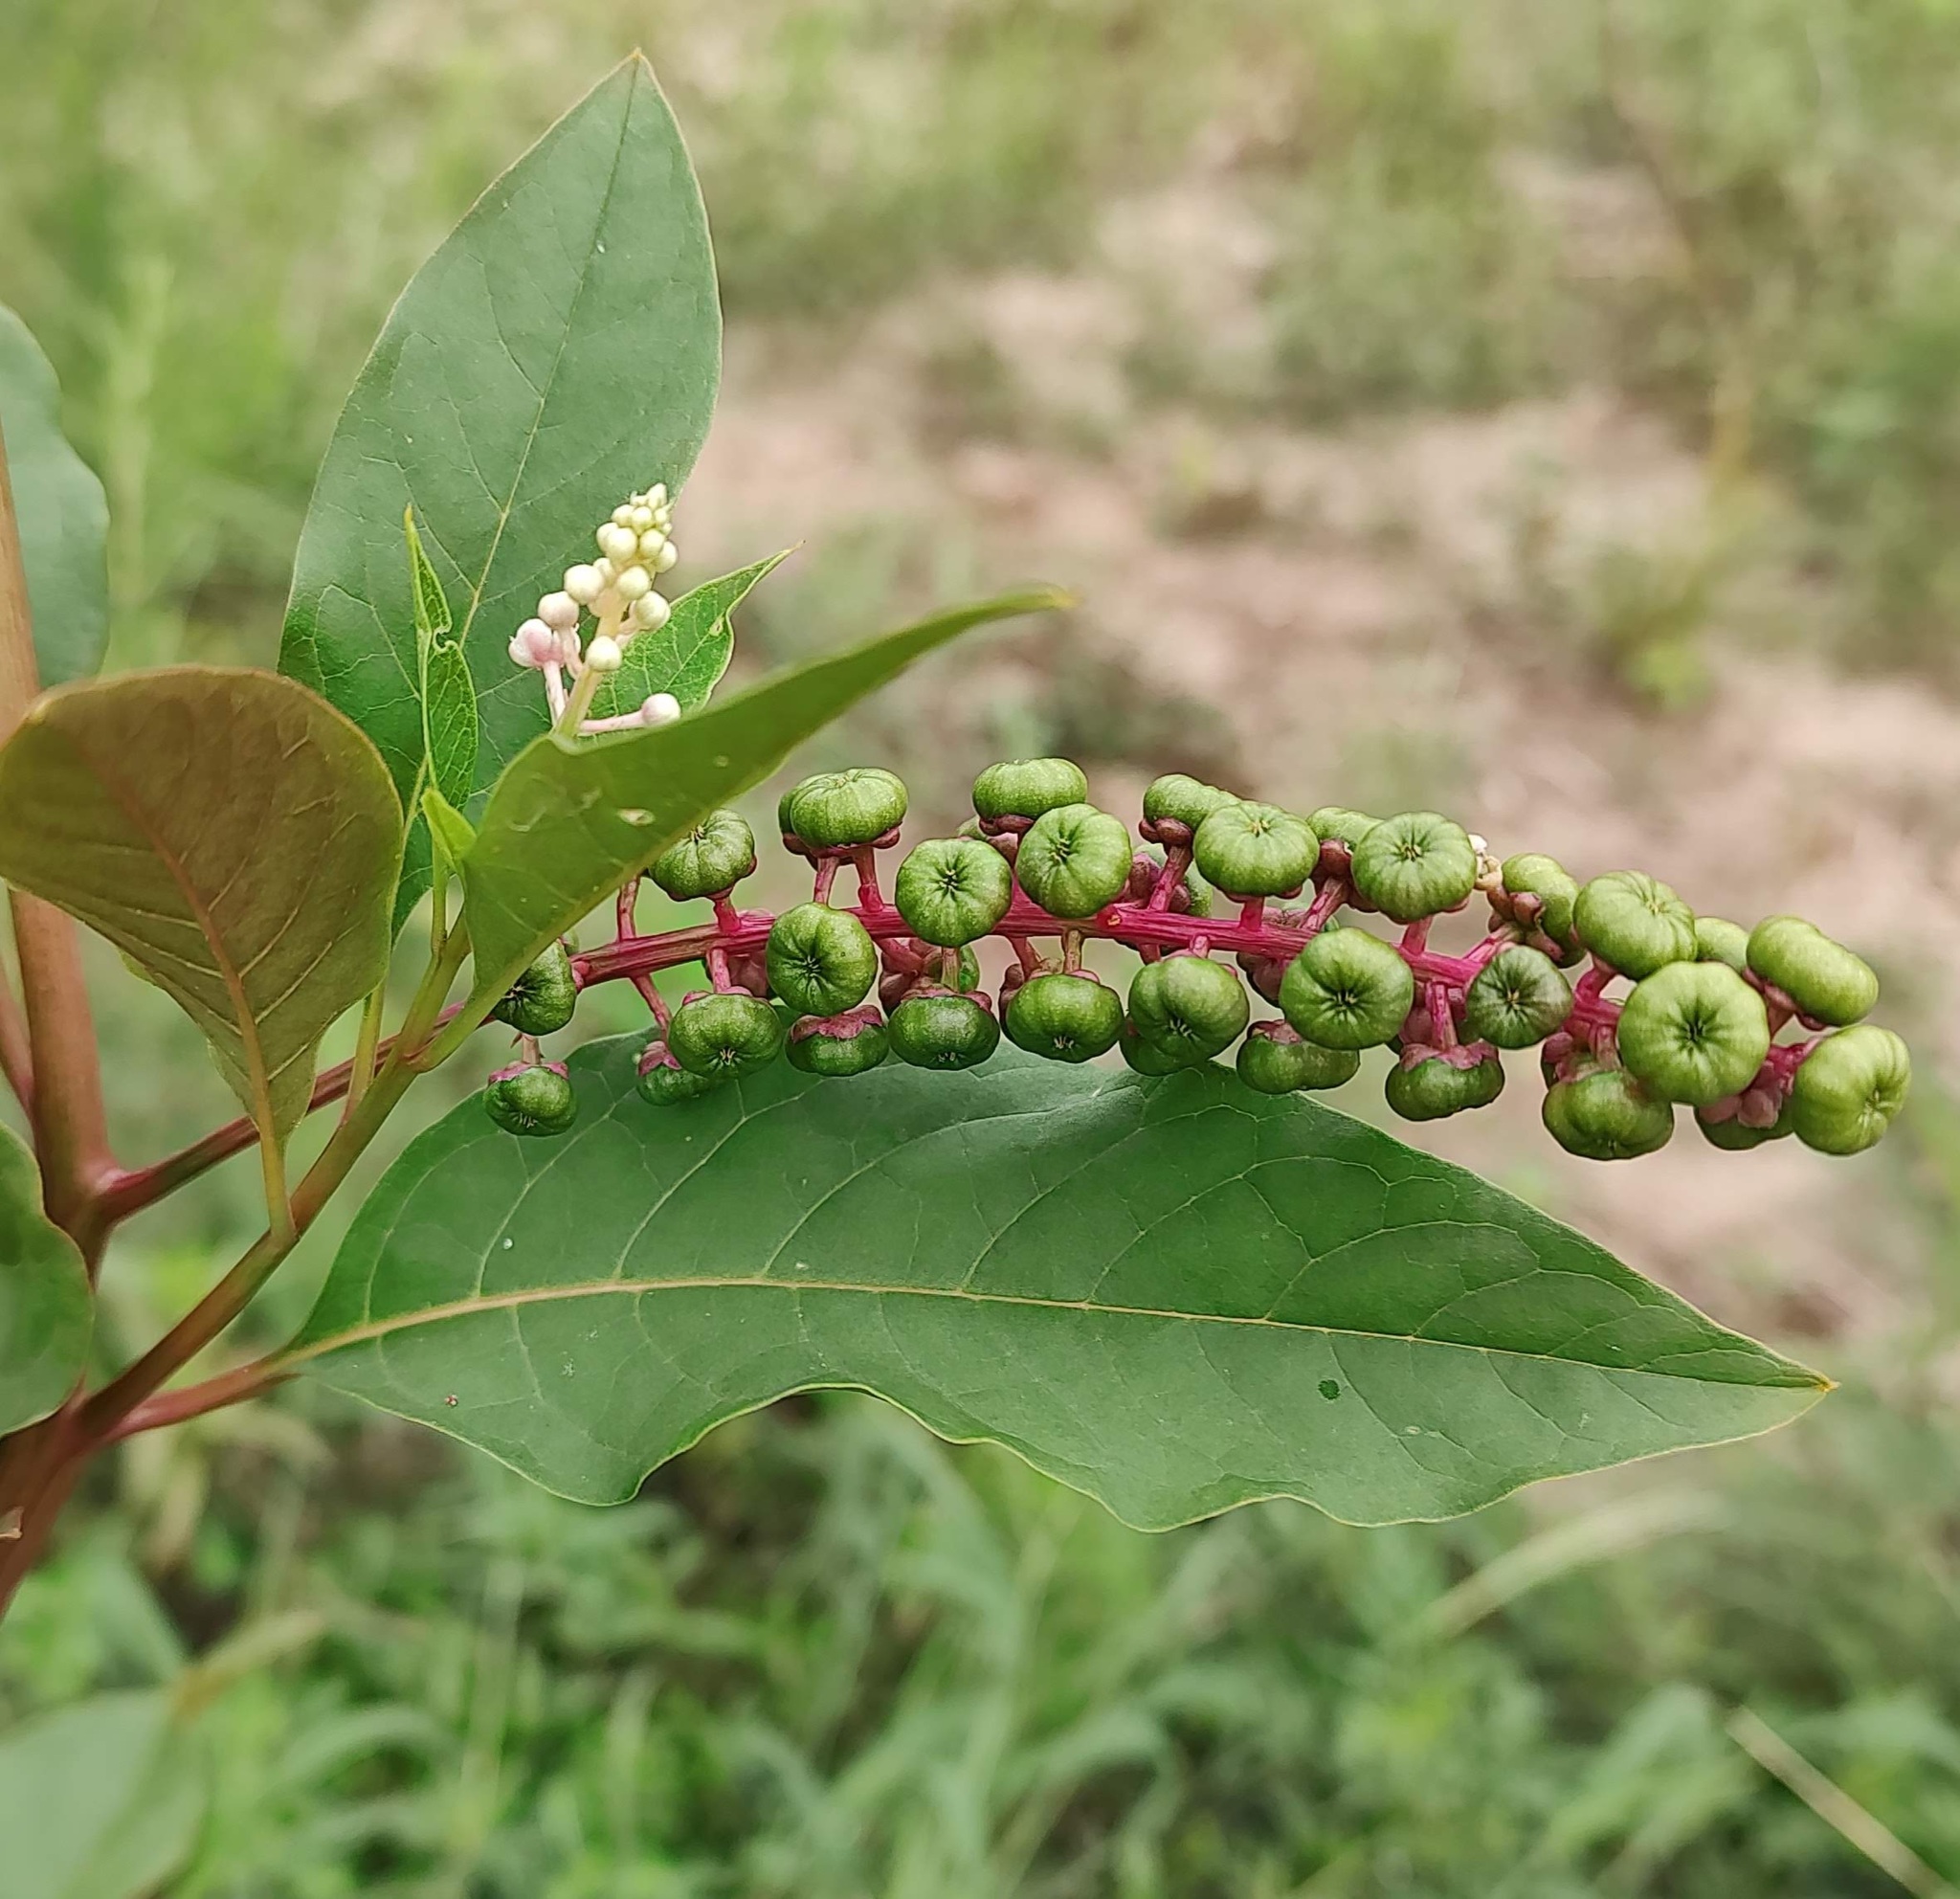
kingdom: Plantae
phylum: Tracheophyta
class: Magnoliopsida
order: Caryophyllales
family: Phytolaccaceae
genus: Phytolacca
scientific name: Phytolacca americana
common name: American pokeweed
